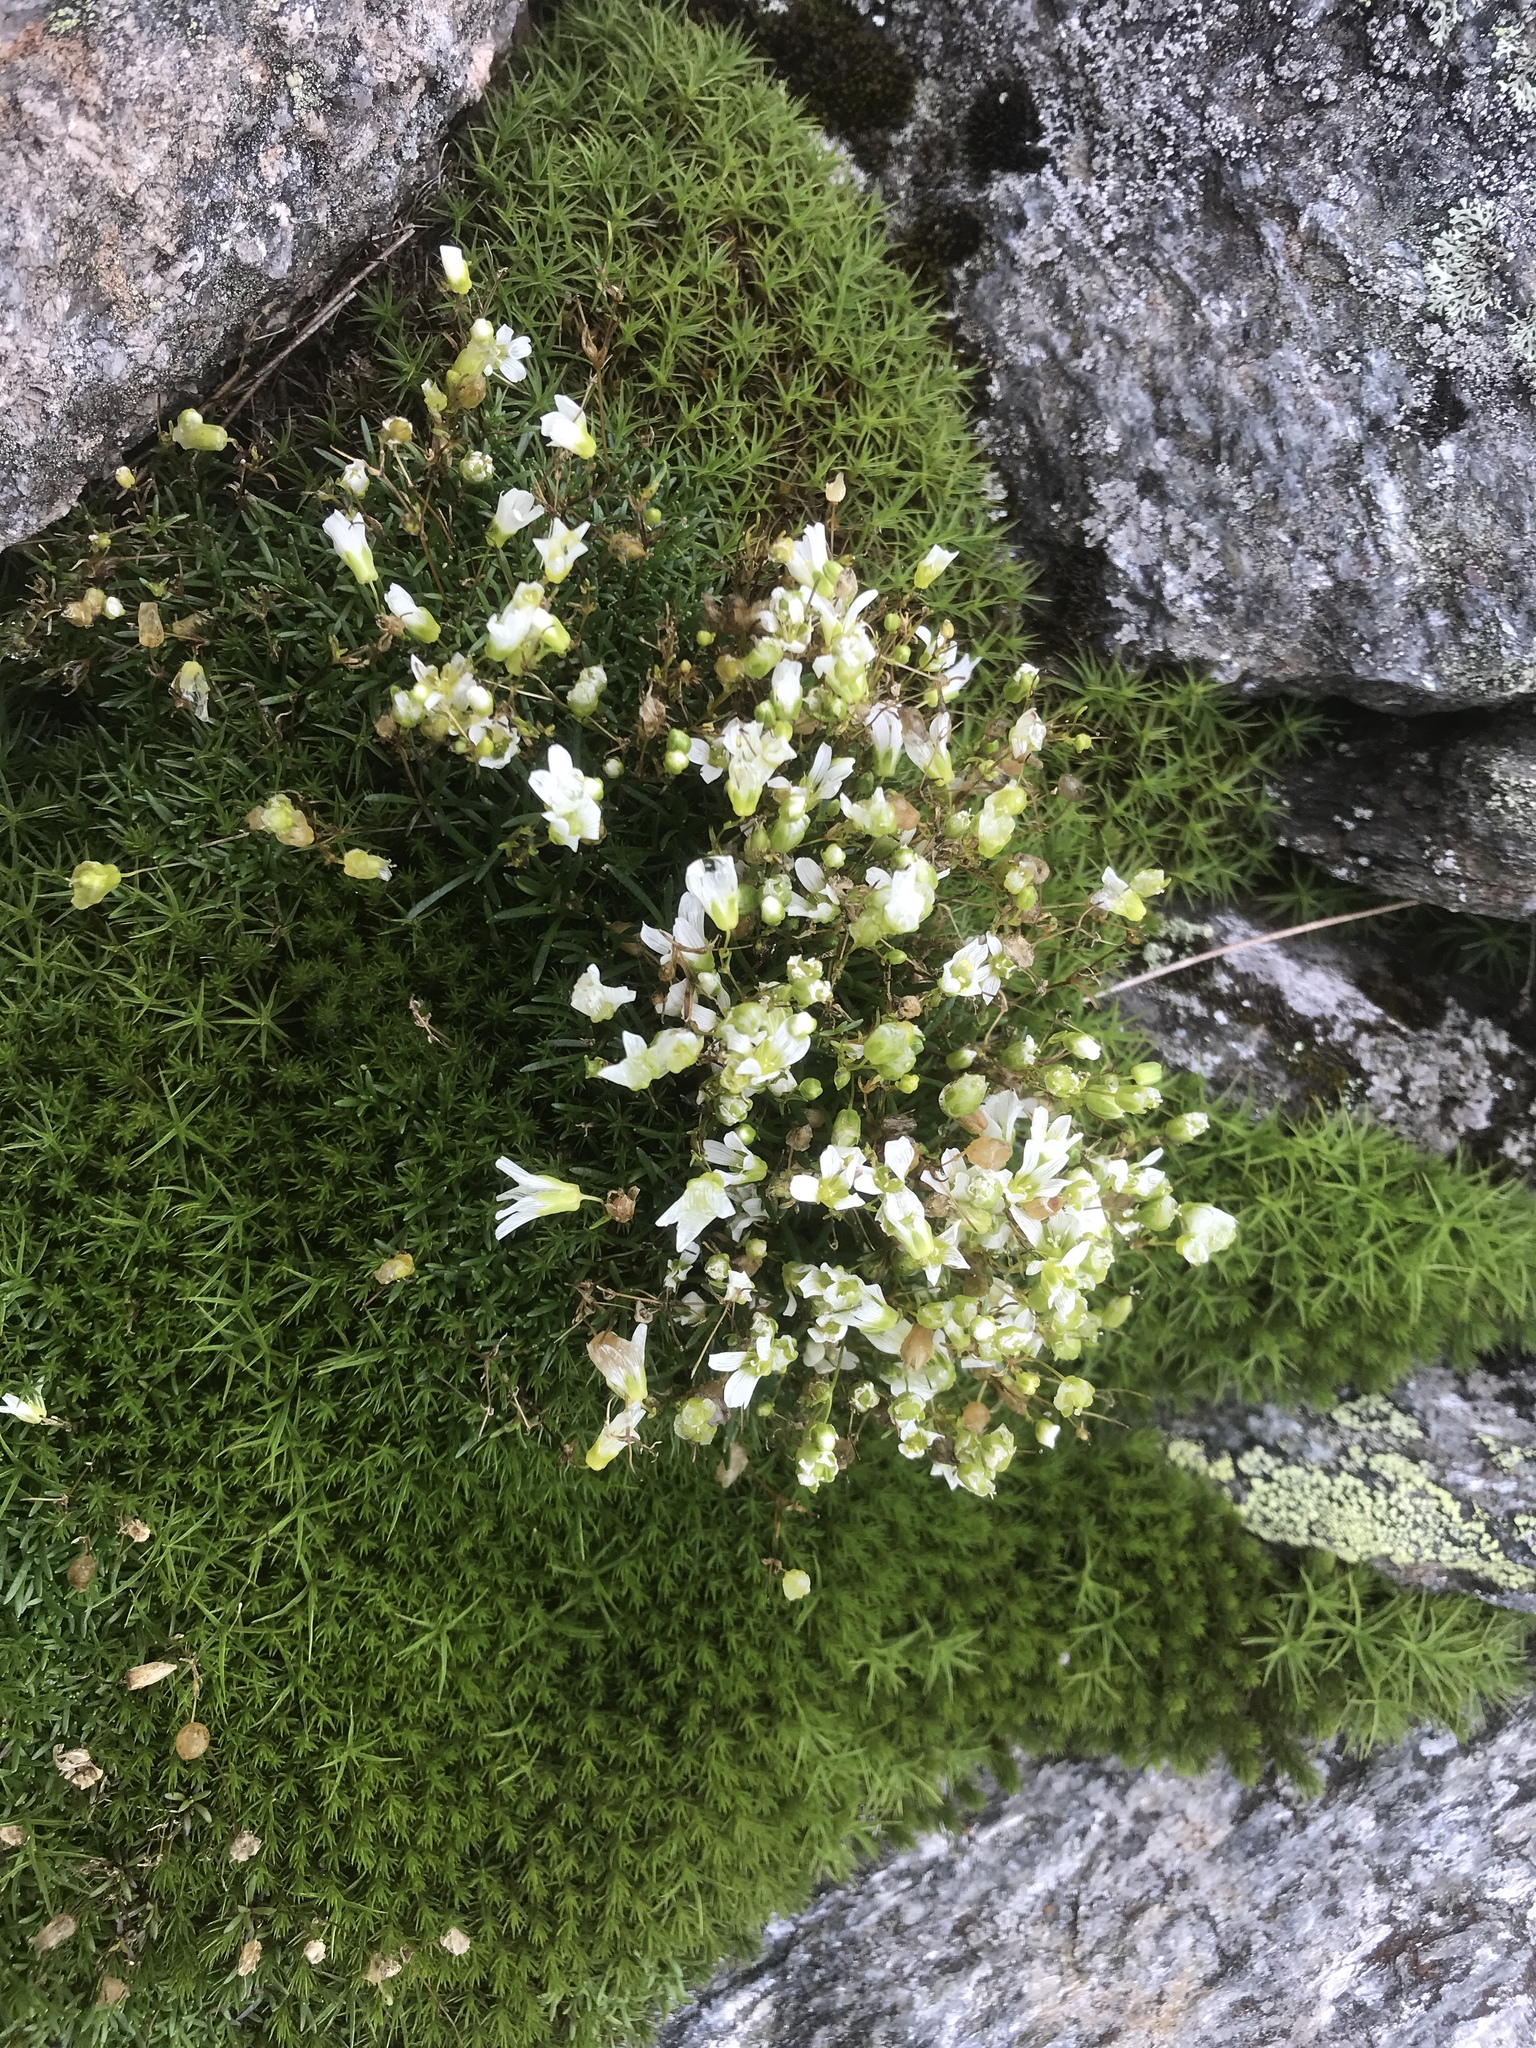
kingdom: Plantae
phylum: Tracheophyta
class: Magnoliopsida
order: Caryophyllales
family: Caryophyllaceae
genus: Geocarpon
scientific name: Geocarpon groenlandicum
